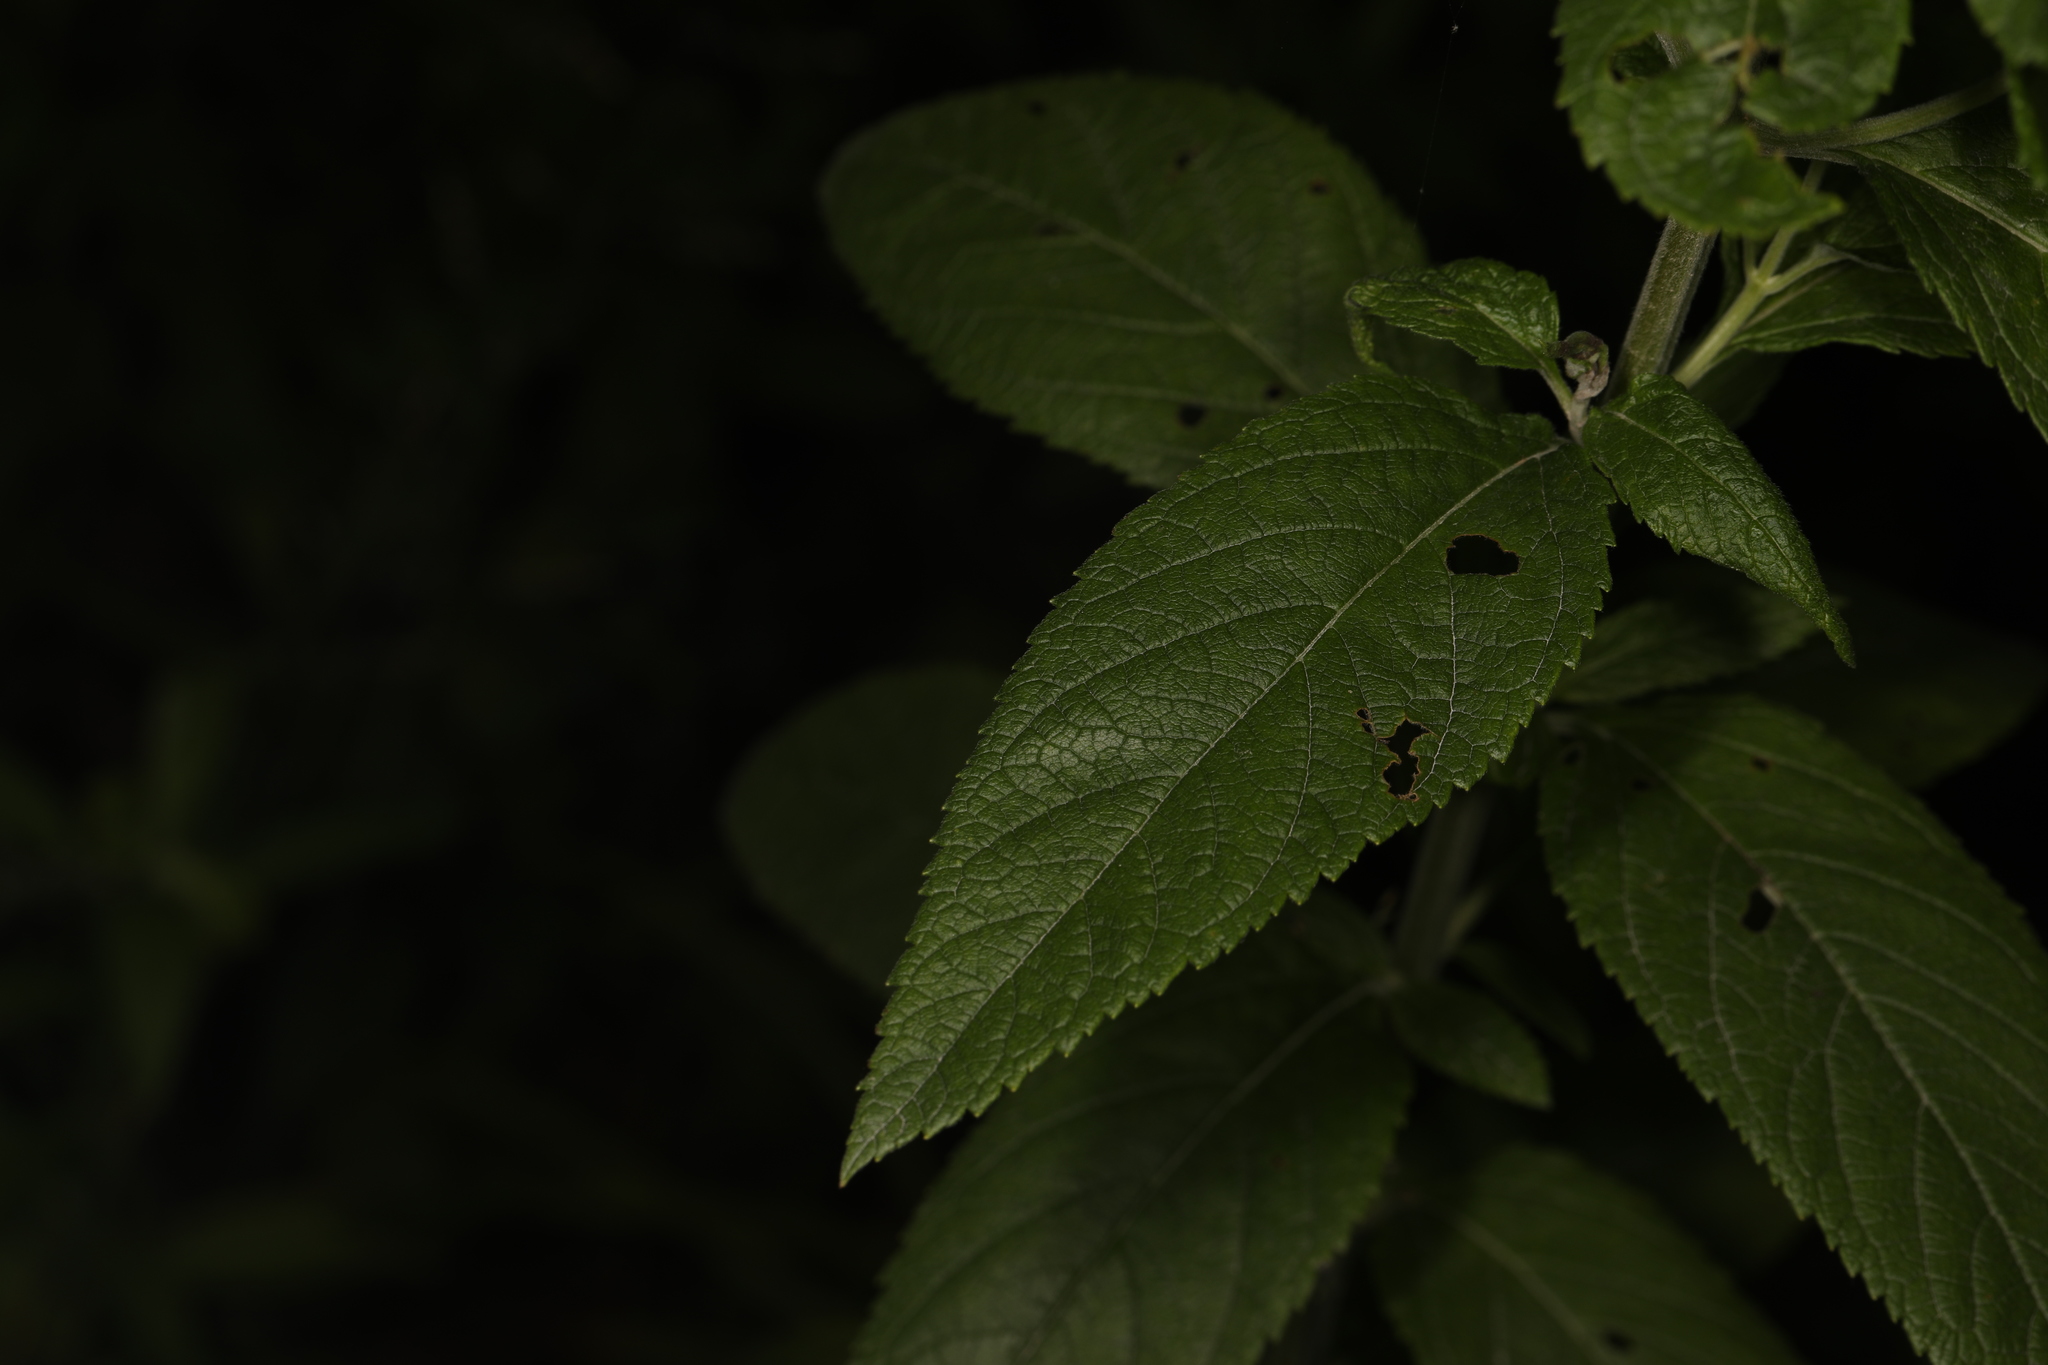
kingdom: Plantae
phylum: Tracheophyta
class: Magnoliopsida
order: Lamiales
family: Lamiaceae
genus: Teucrium
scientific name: Teucrium canadense
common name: American germander
